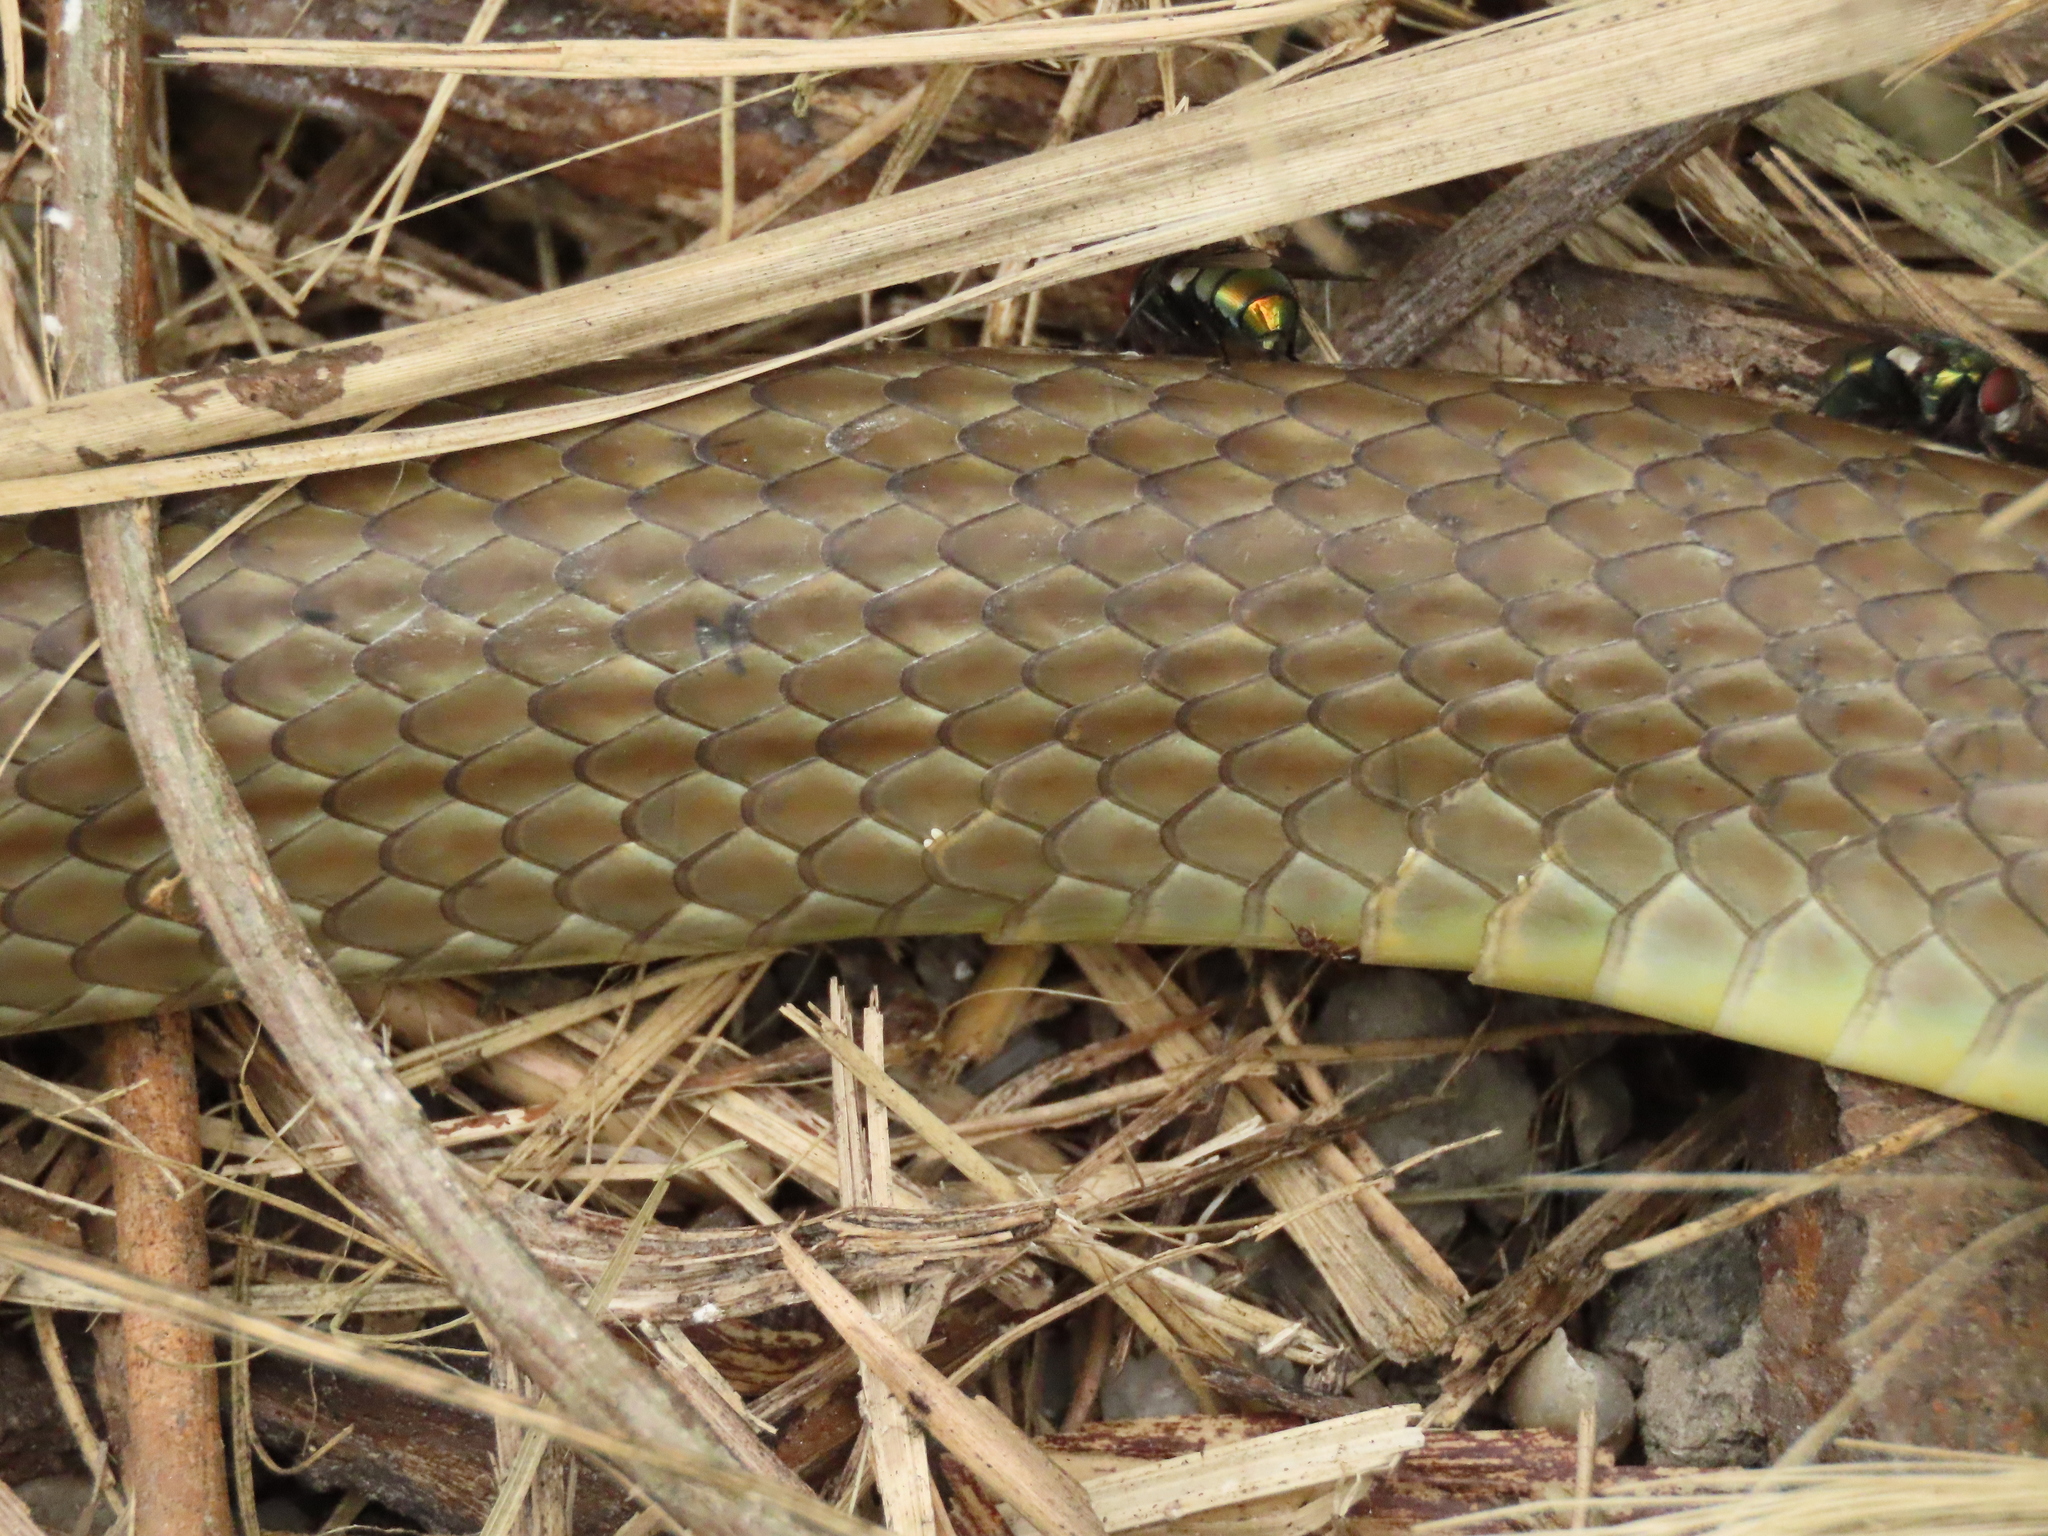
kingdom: Animalia
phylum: Chordata
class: Squamata
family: Colubridae
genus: Ptyas
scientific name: Ptyas korros
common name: Indo-chinese rat snake
